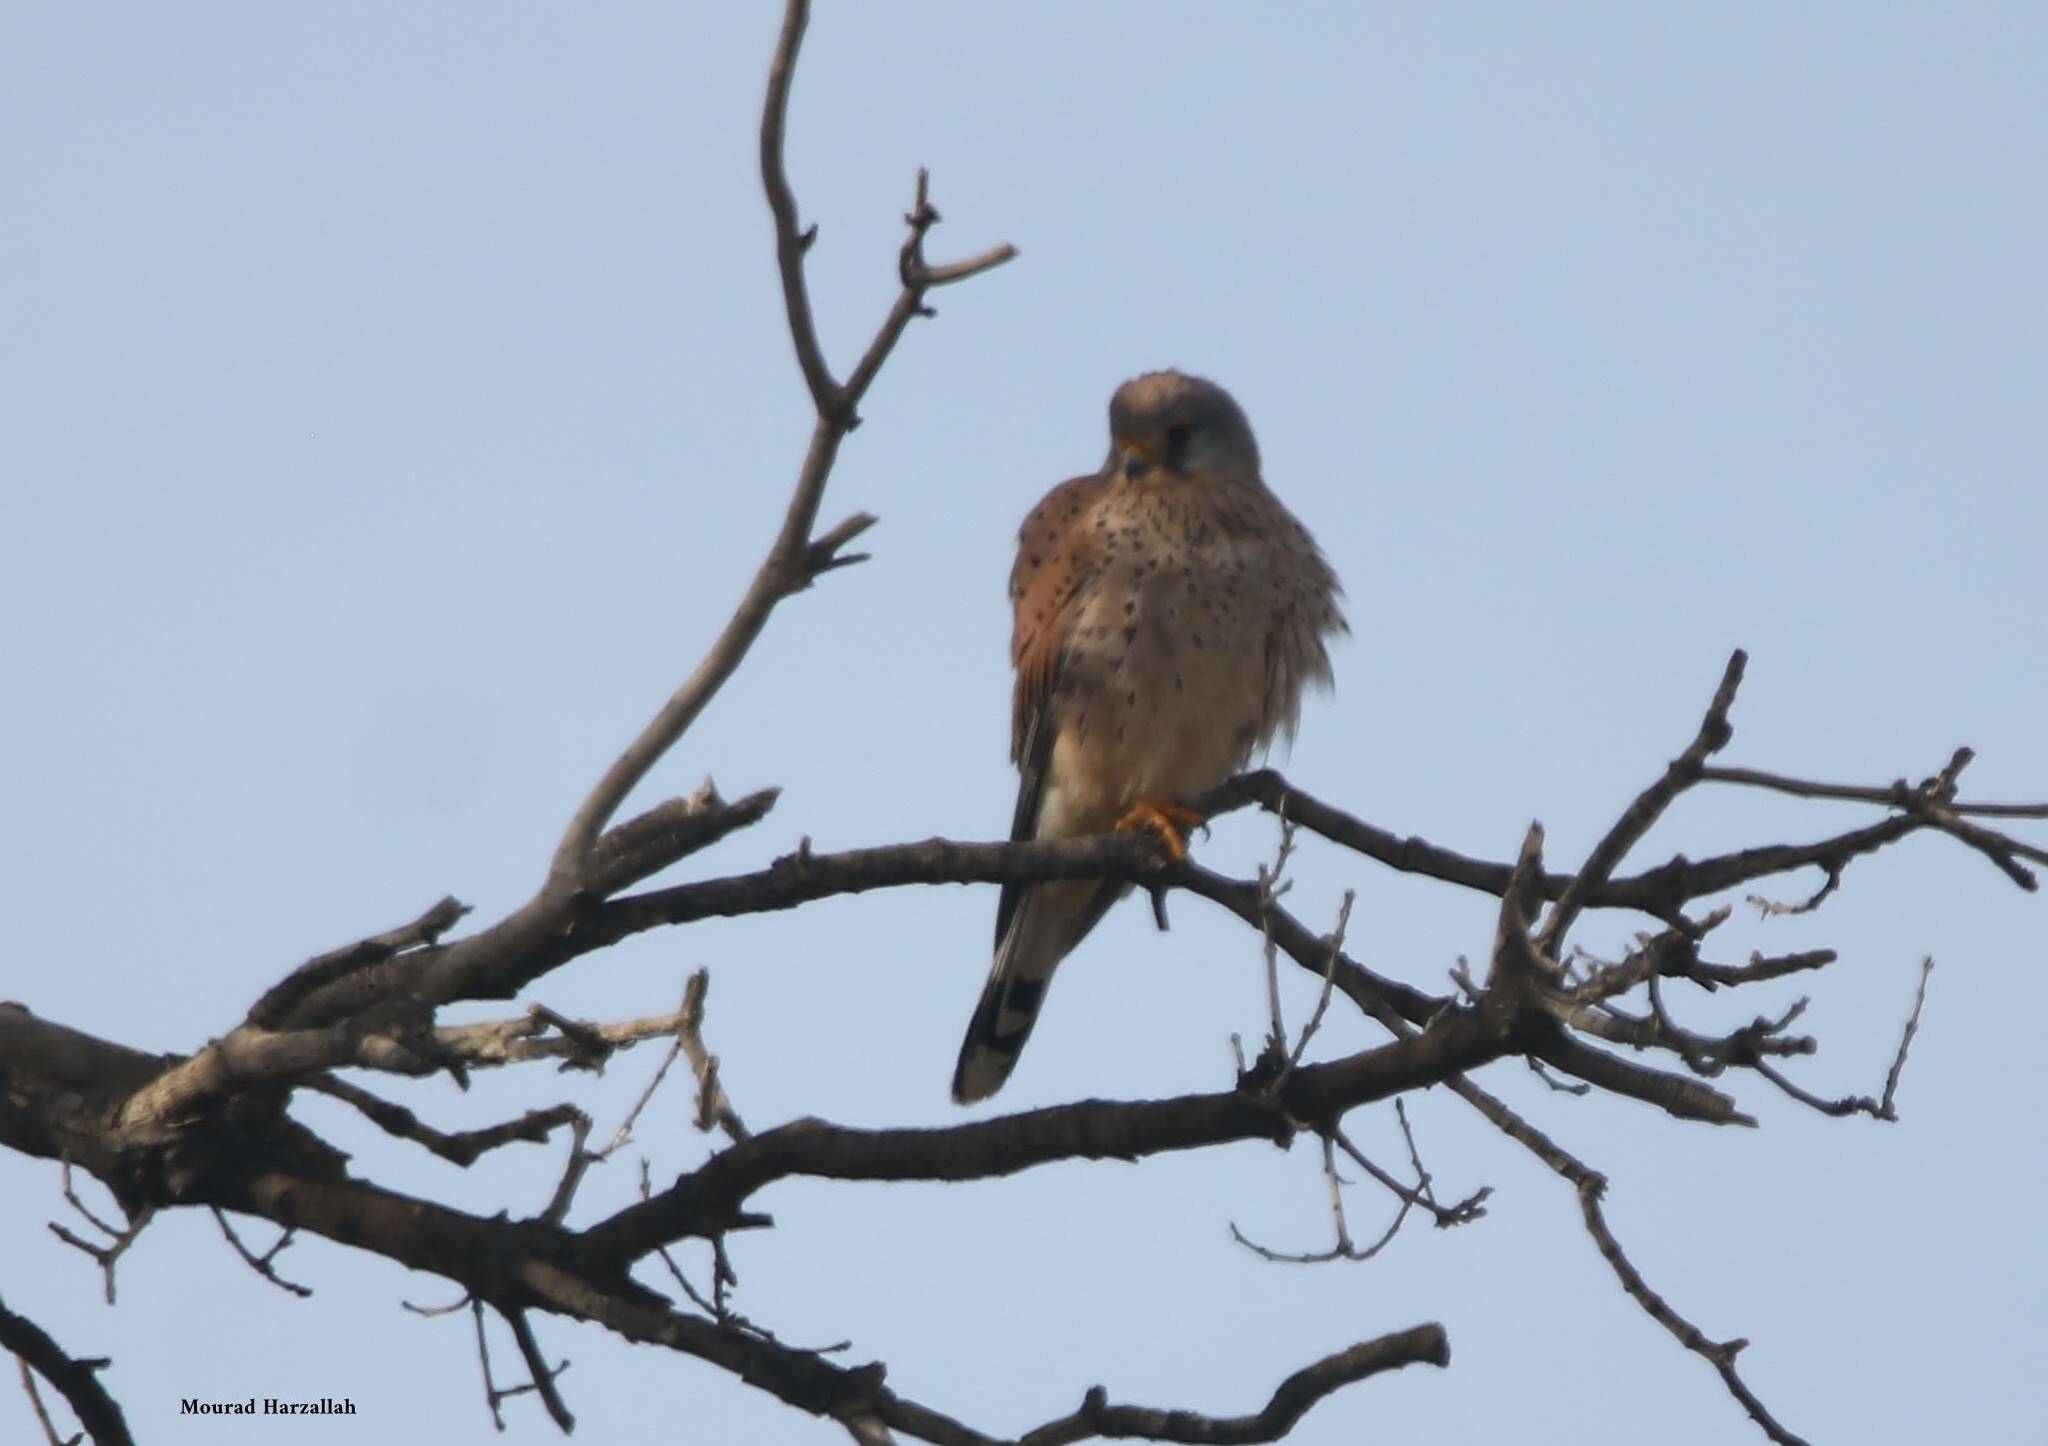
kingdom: Animalia
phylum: Chordata
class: Aves
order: Falconiformes
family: Falconidae
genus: Falco
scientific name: Falco tinnunculus
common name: Common kestrel
